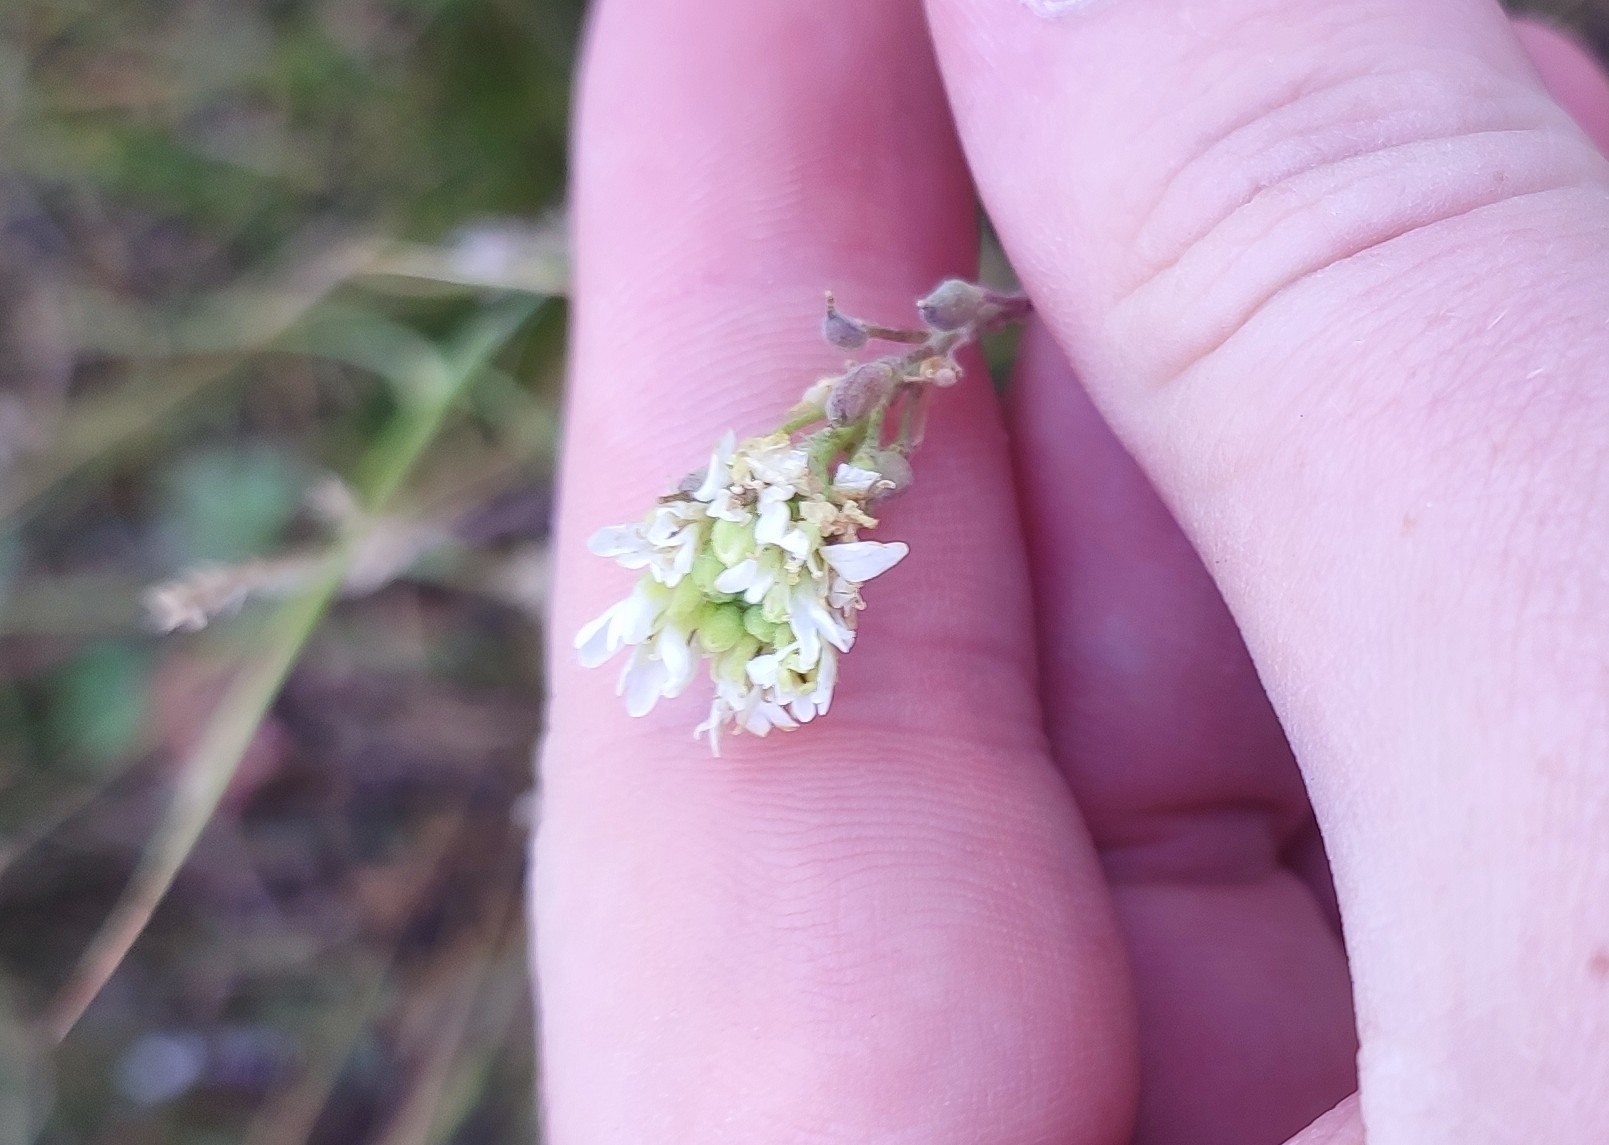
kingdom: Plantae
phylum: Tracheophyta
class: Magnoliopsida
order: Brassicales
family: Brassicaceae
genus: Berteroa
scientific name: Berteroa incana
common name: Hoary alison
